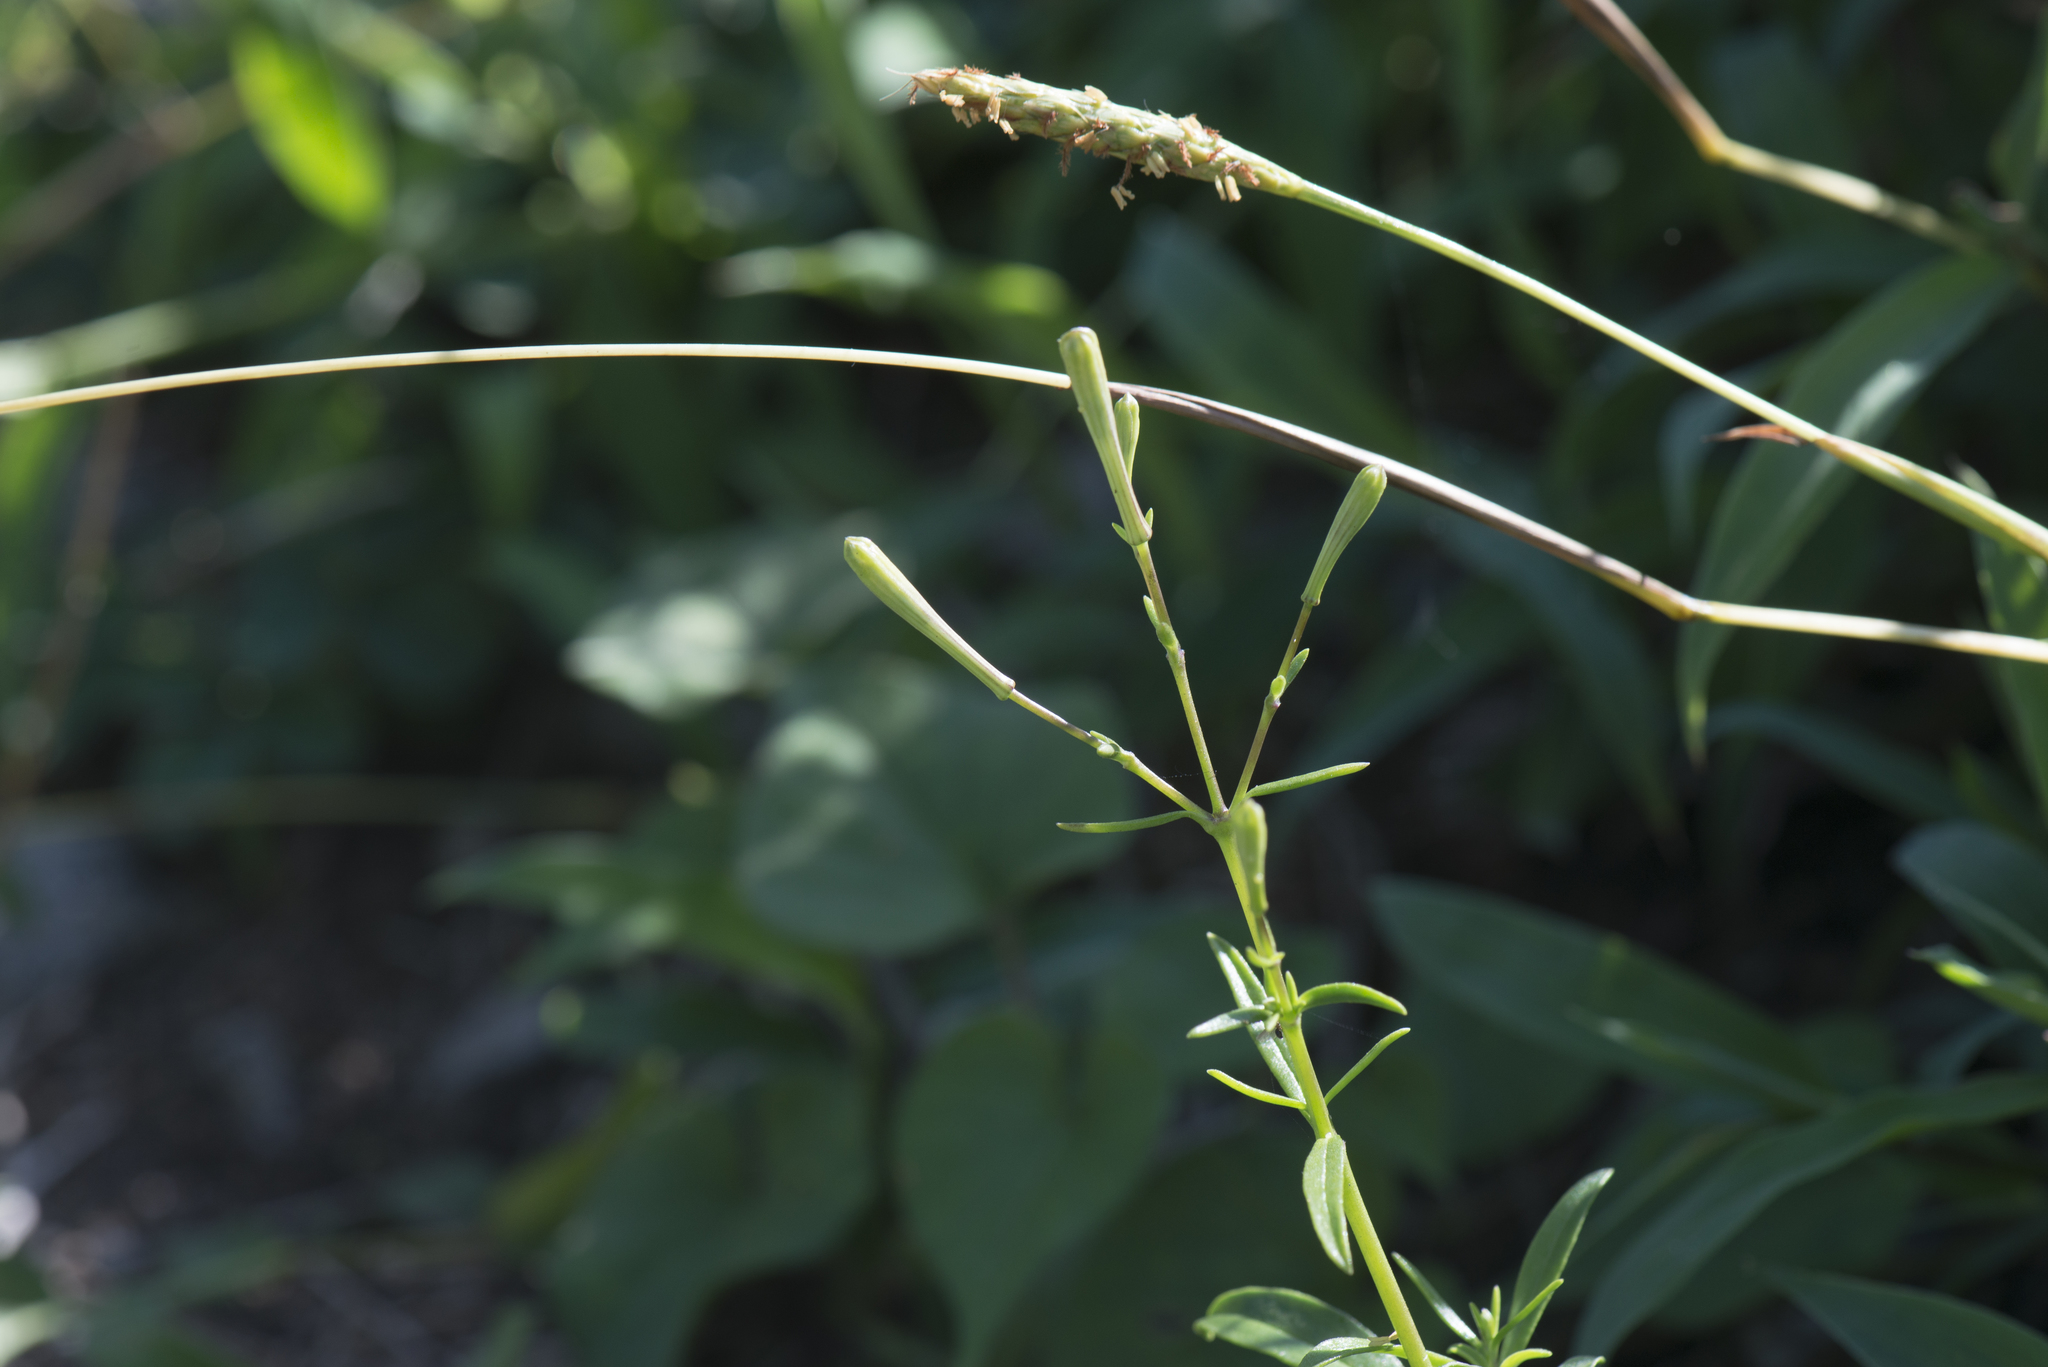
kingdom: Plantae
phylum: Tracheophyta
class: Magnoliopsida
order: Caryophyllales
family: Caryophyllaceae
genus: Silene
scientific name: Silene fissipetala
